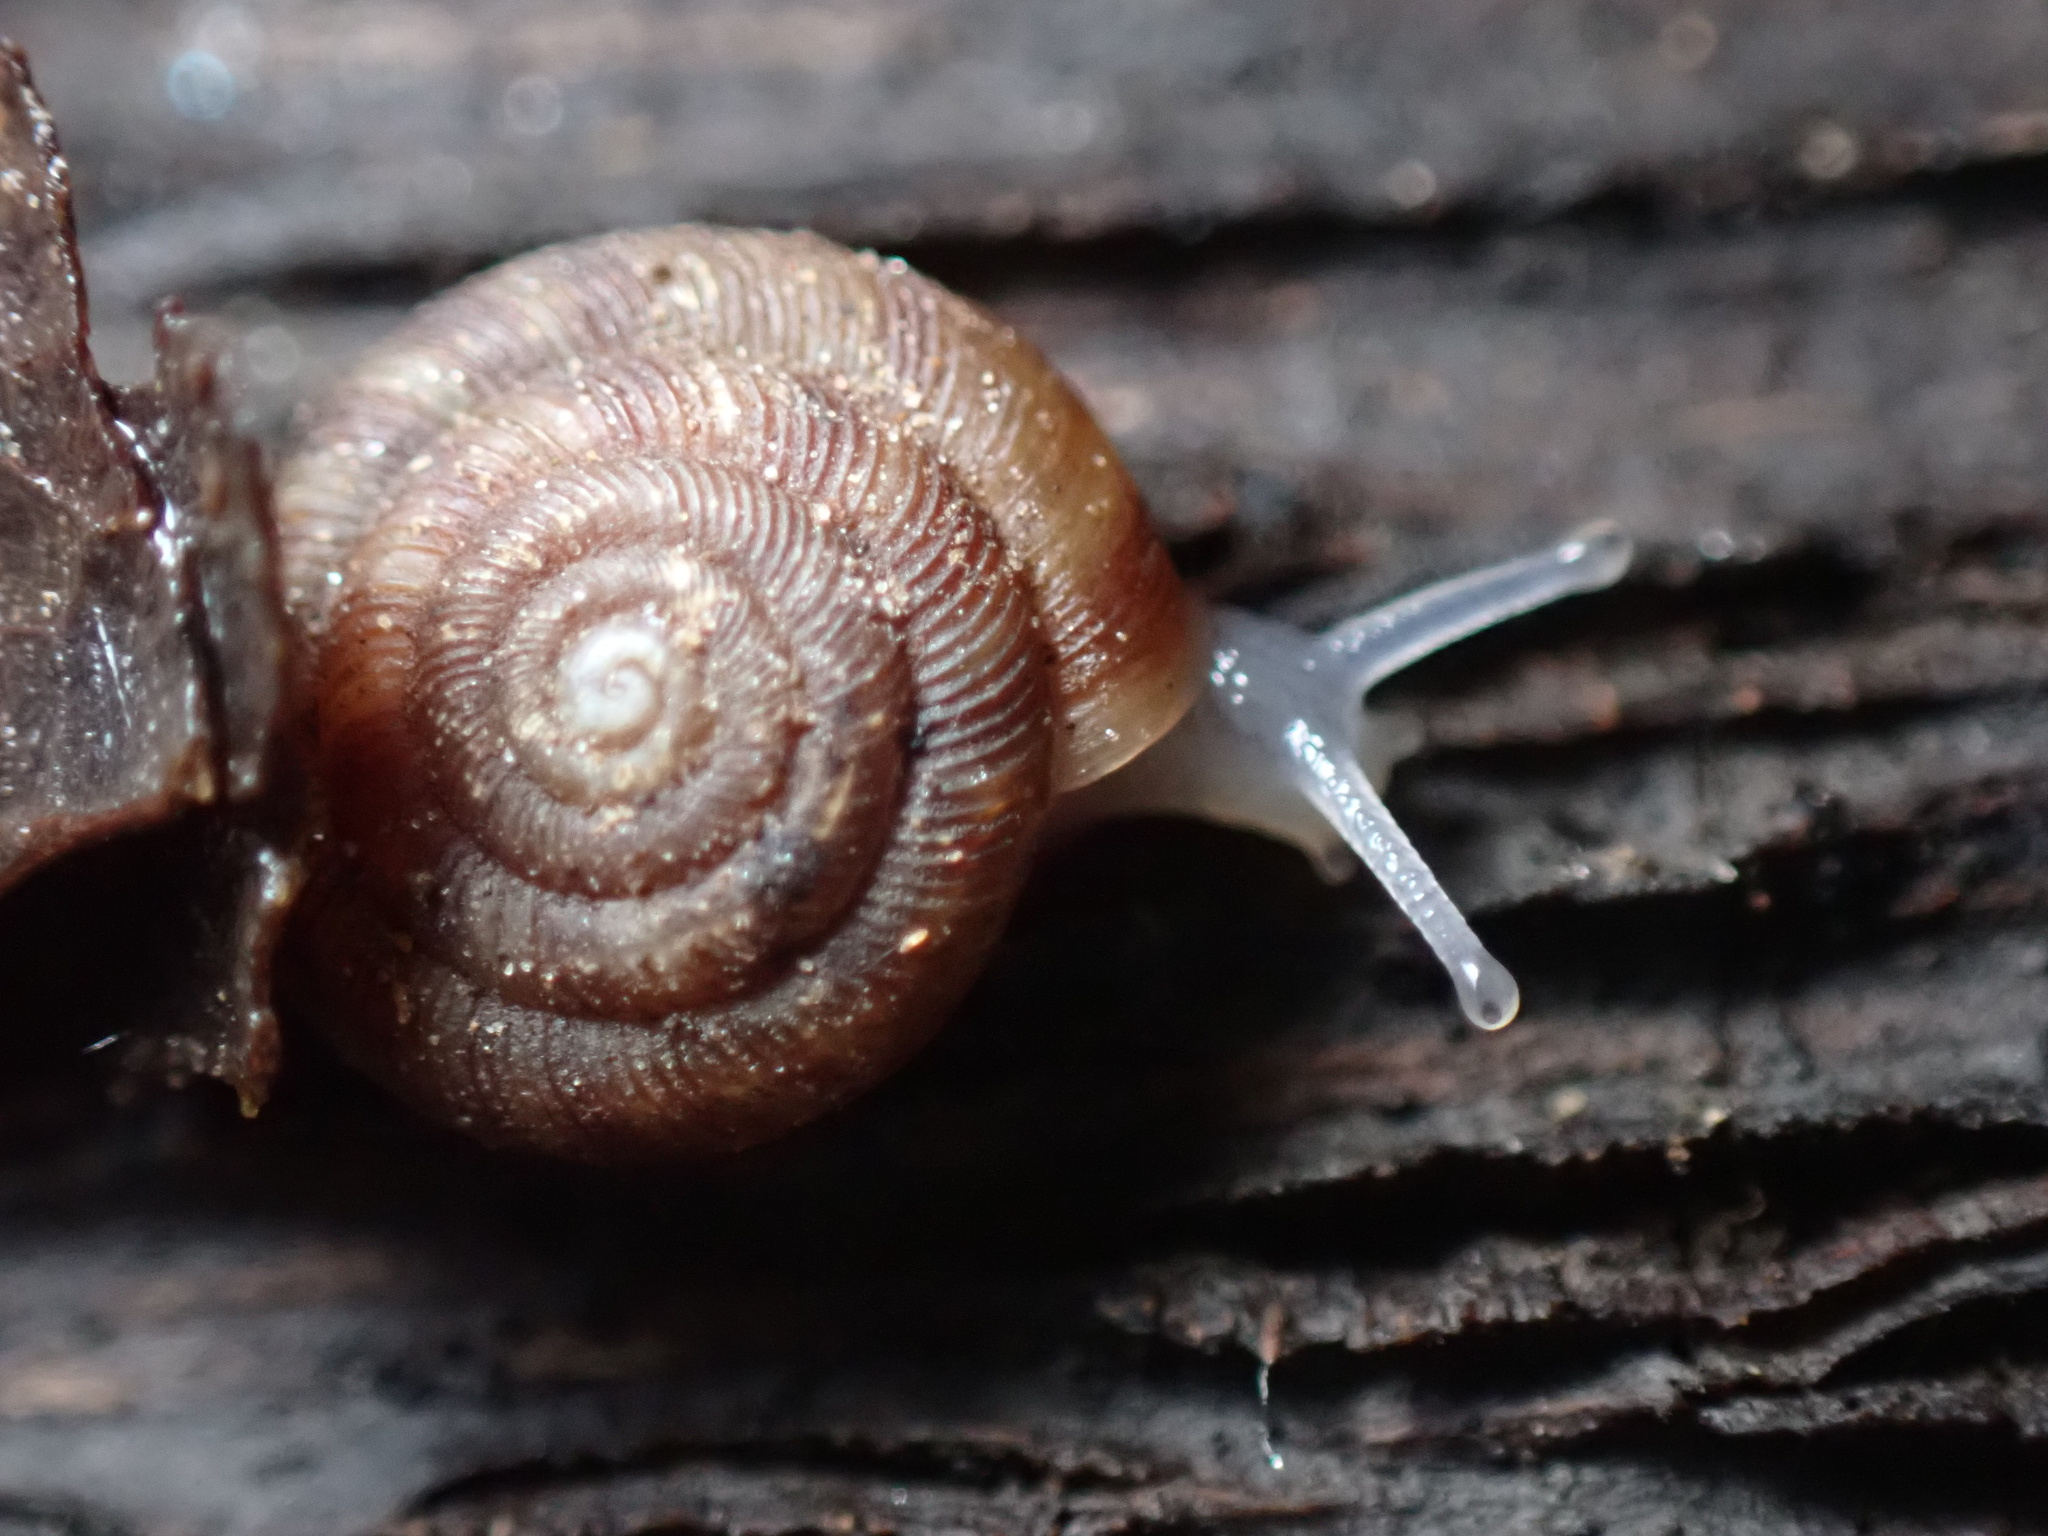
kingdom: Animalia
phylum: Mollusca
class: Gastropoda
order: Stylommatophora
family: Discidae
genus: Discus
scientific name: Discus rotundatus
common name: Rounded snail
